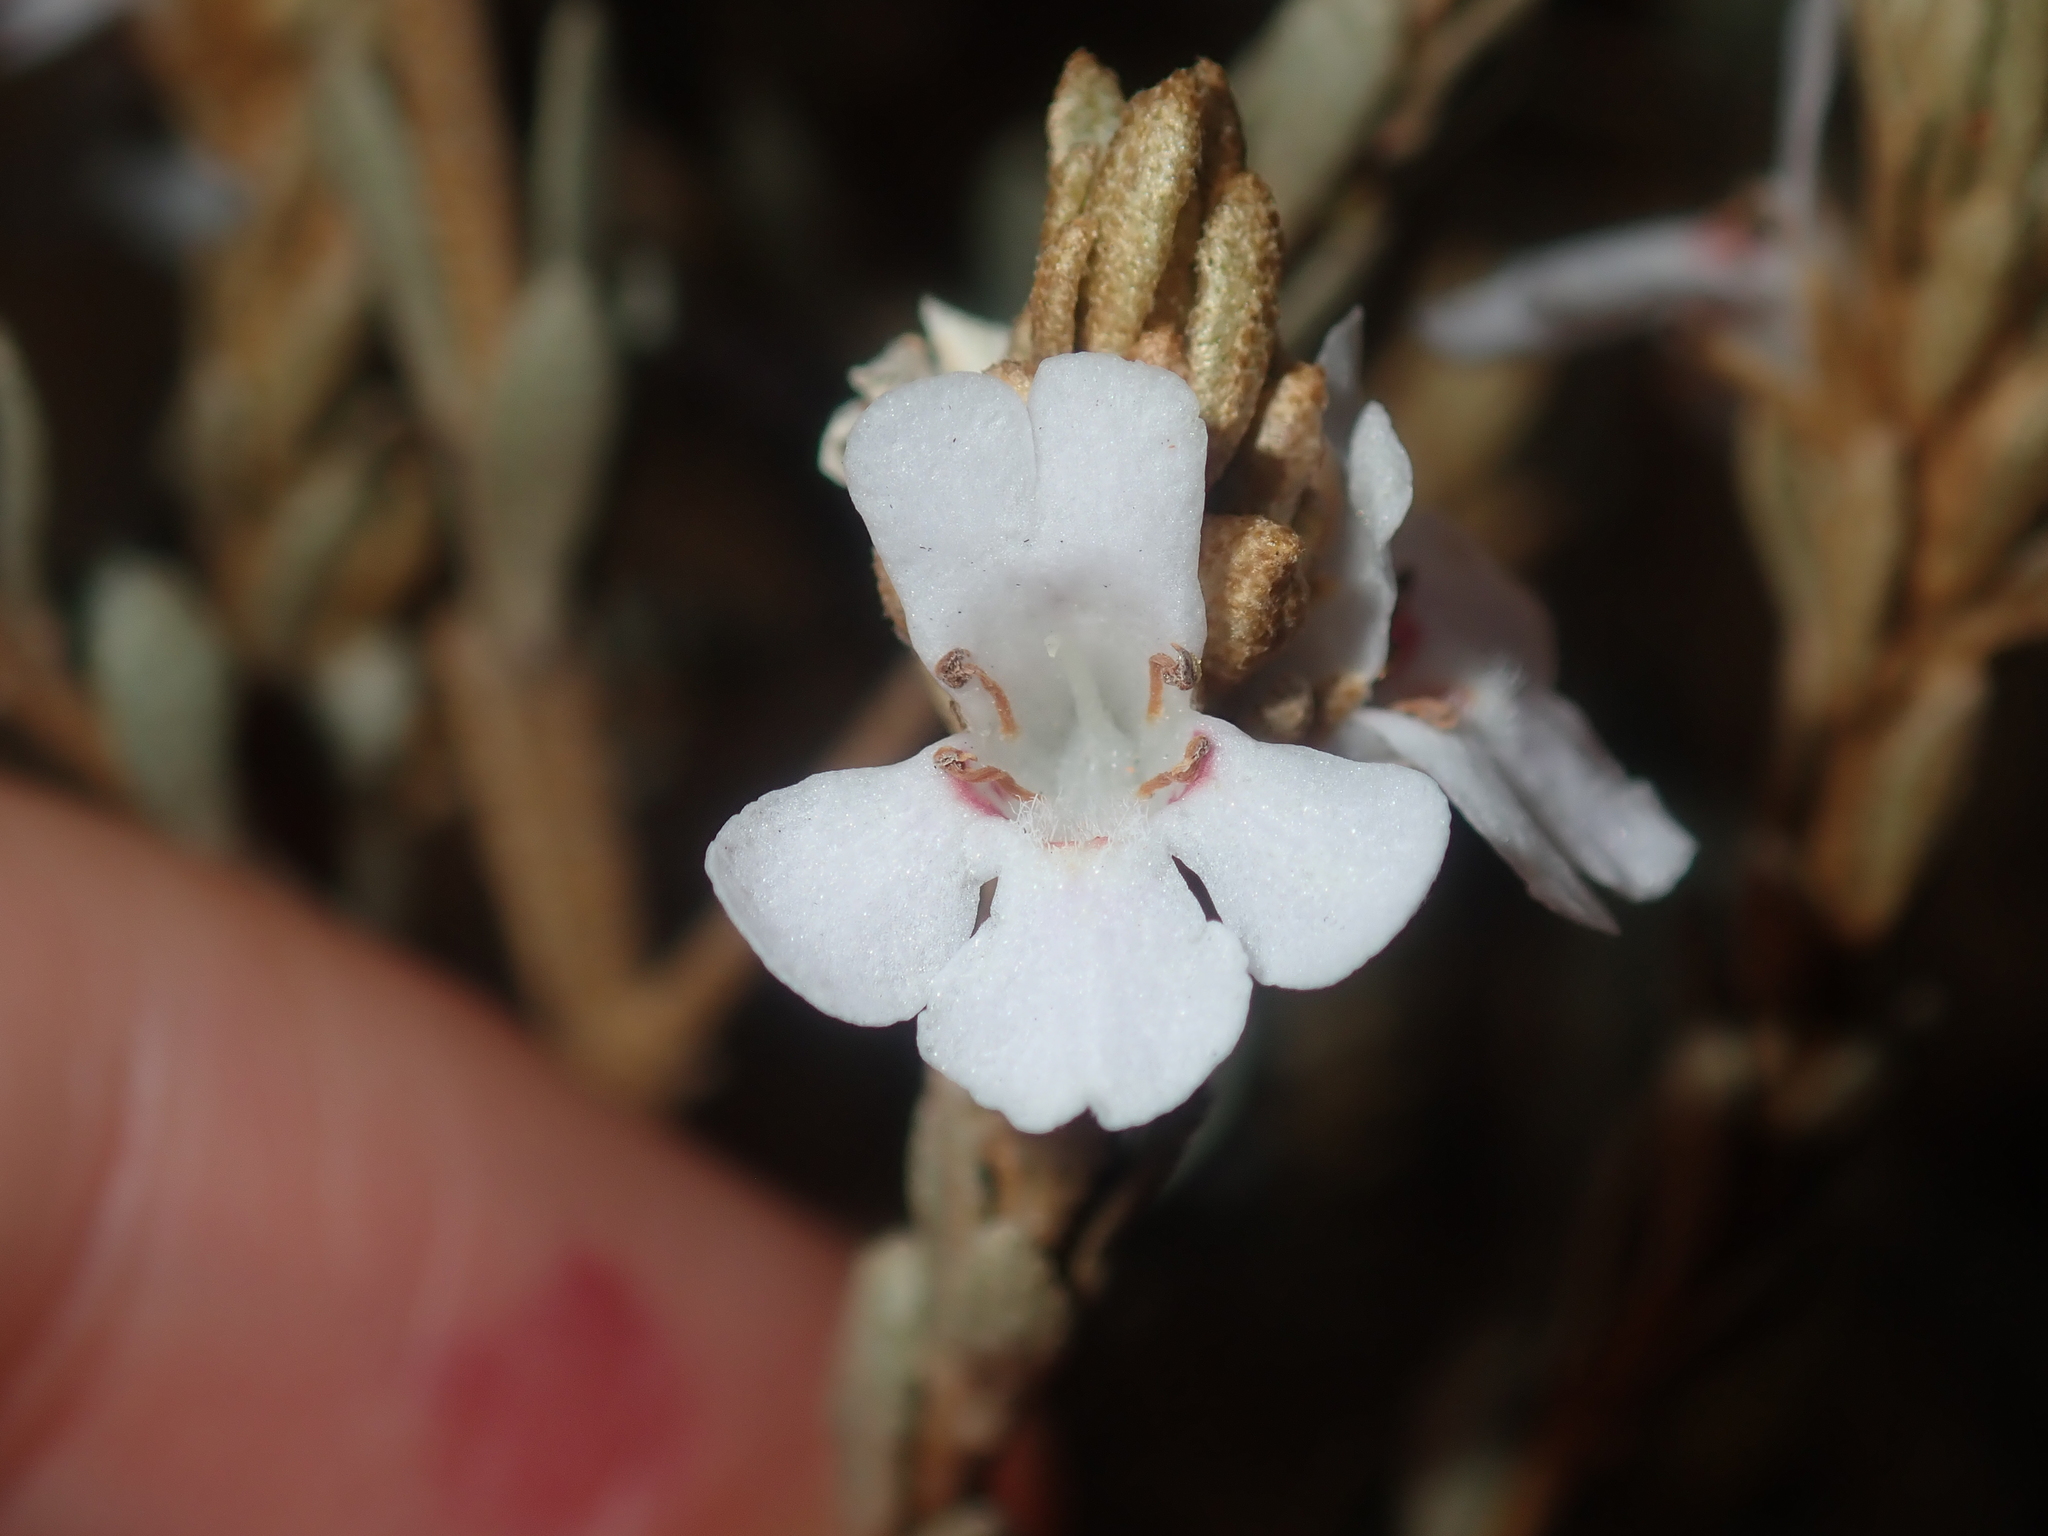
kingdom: Plantae
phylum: Tracheophyta
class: Magnoliopsida
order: Lamiales
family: Lamiaceae
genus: Pityrodia
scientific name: Pityrodia lepidota
